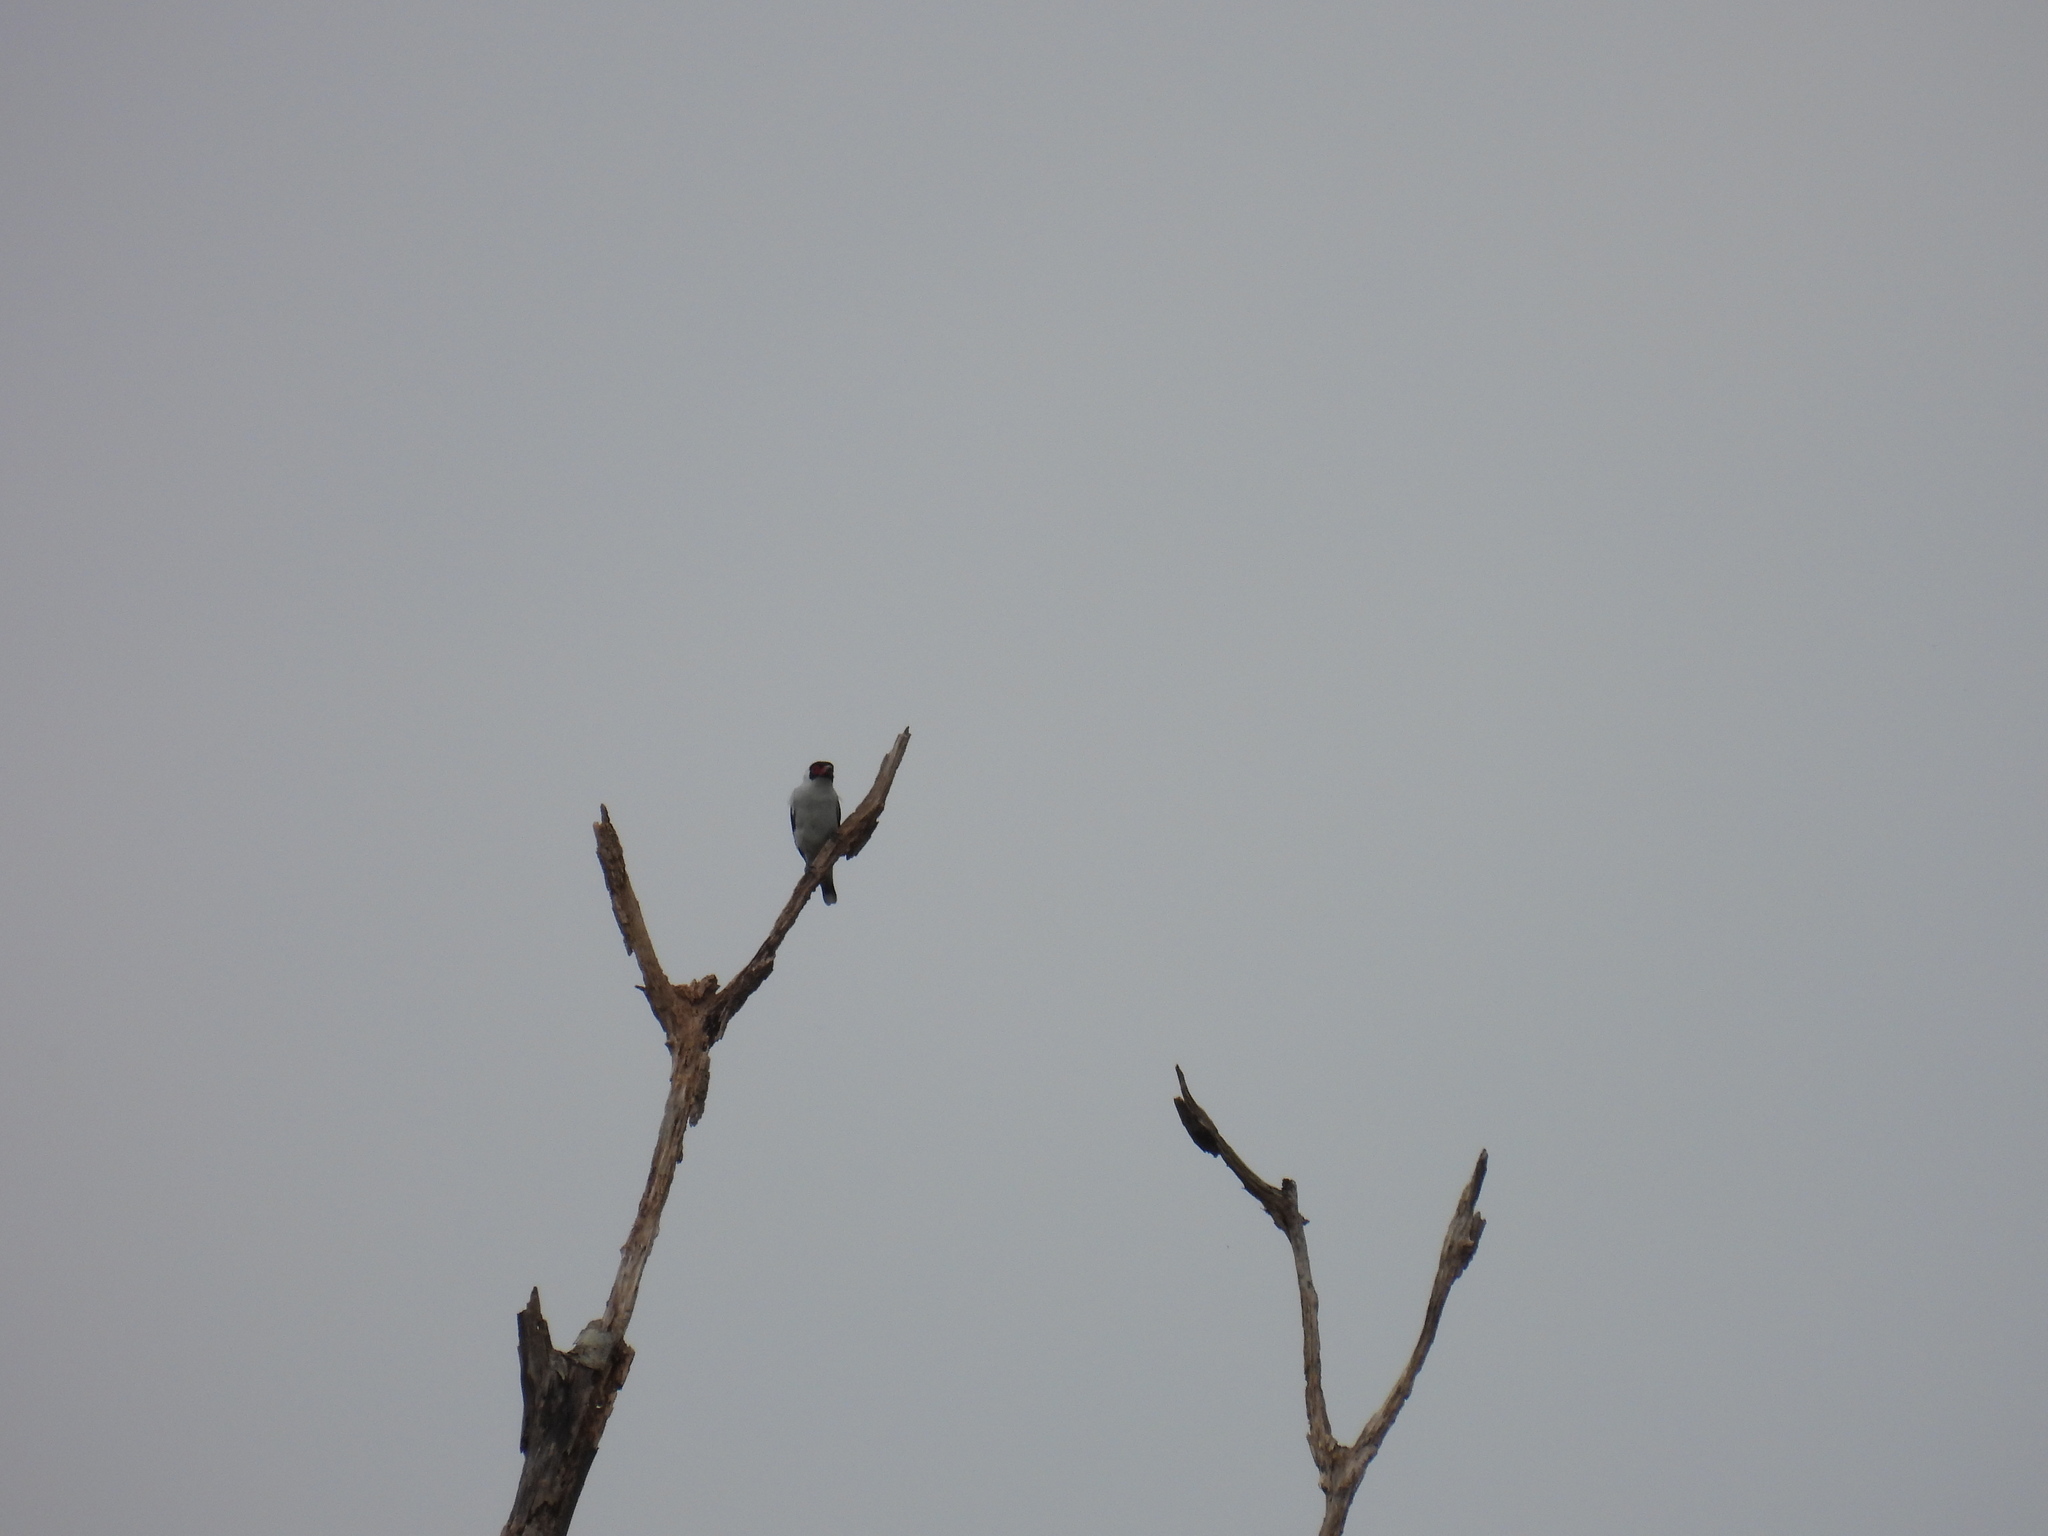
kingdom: Animalia
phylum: Chordata
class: Aves
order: Passeriformes
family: Cotingidae
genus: Tityra
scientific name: Tityra semifasciata
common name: Masked tityra
